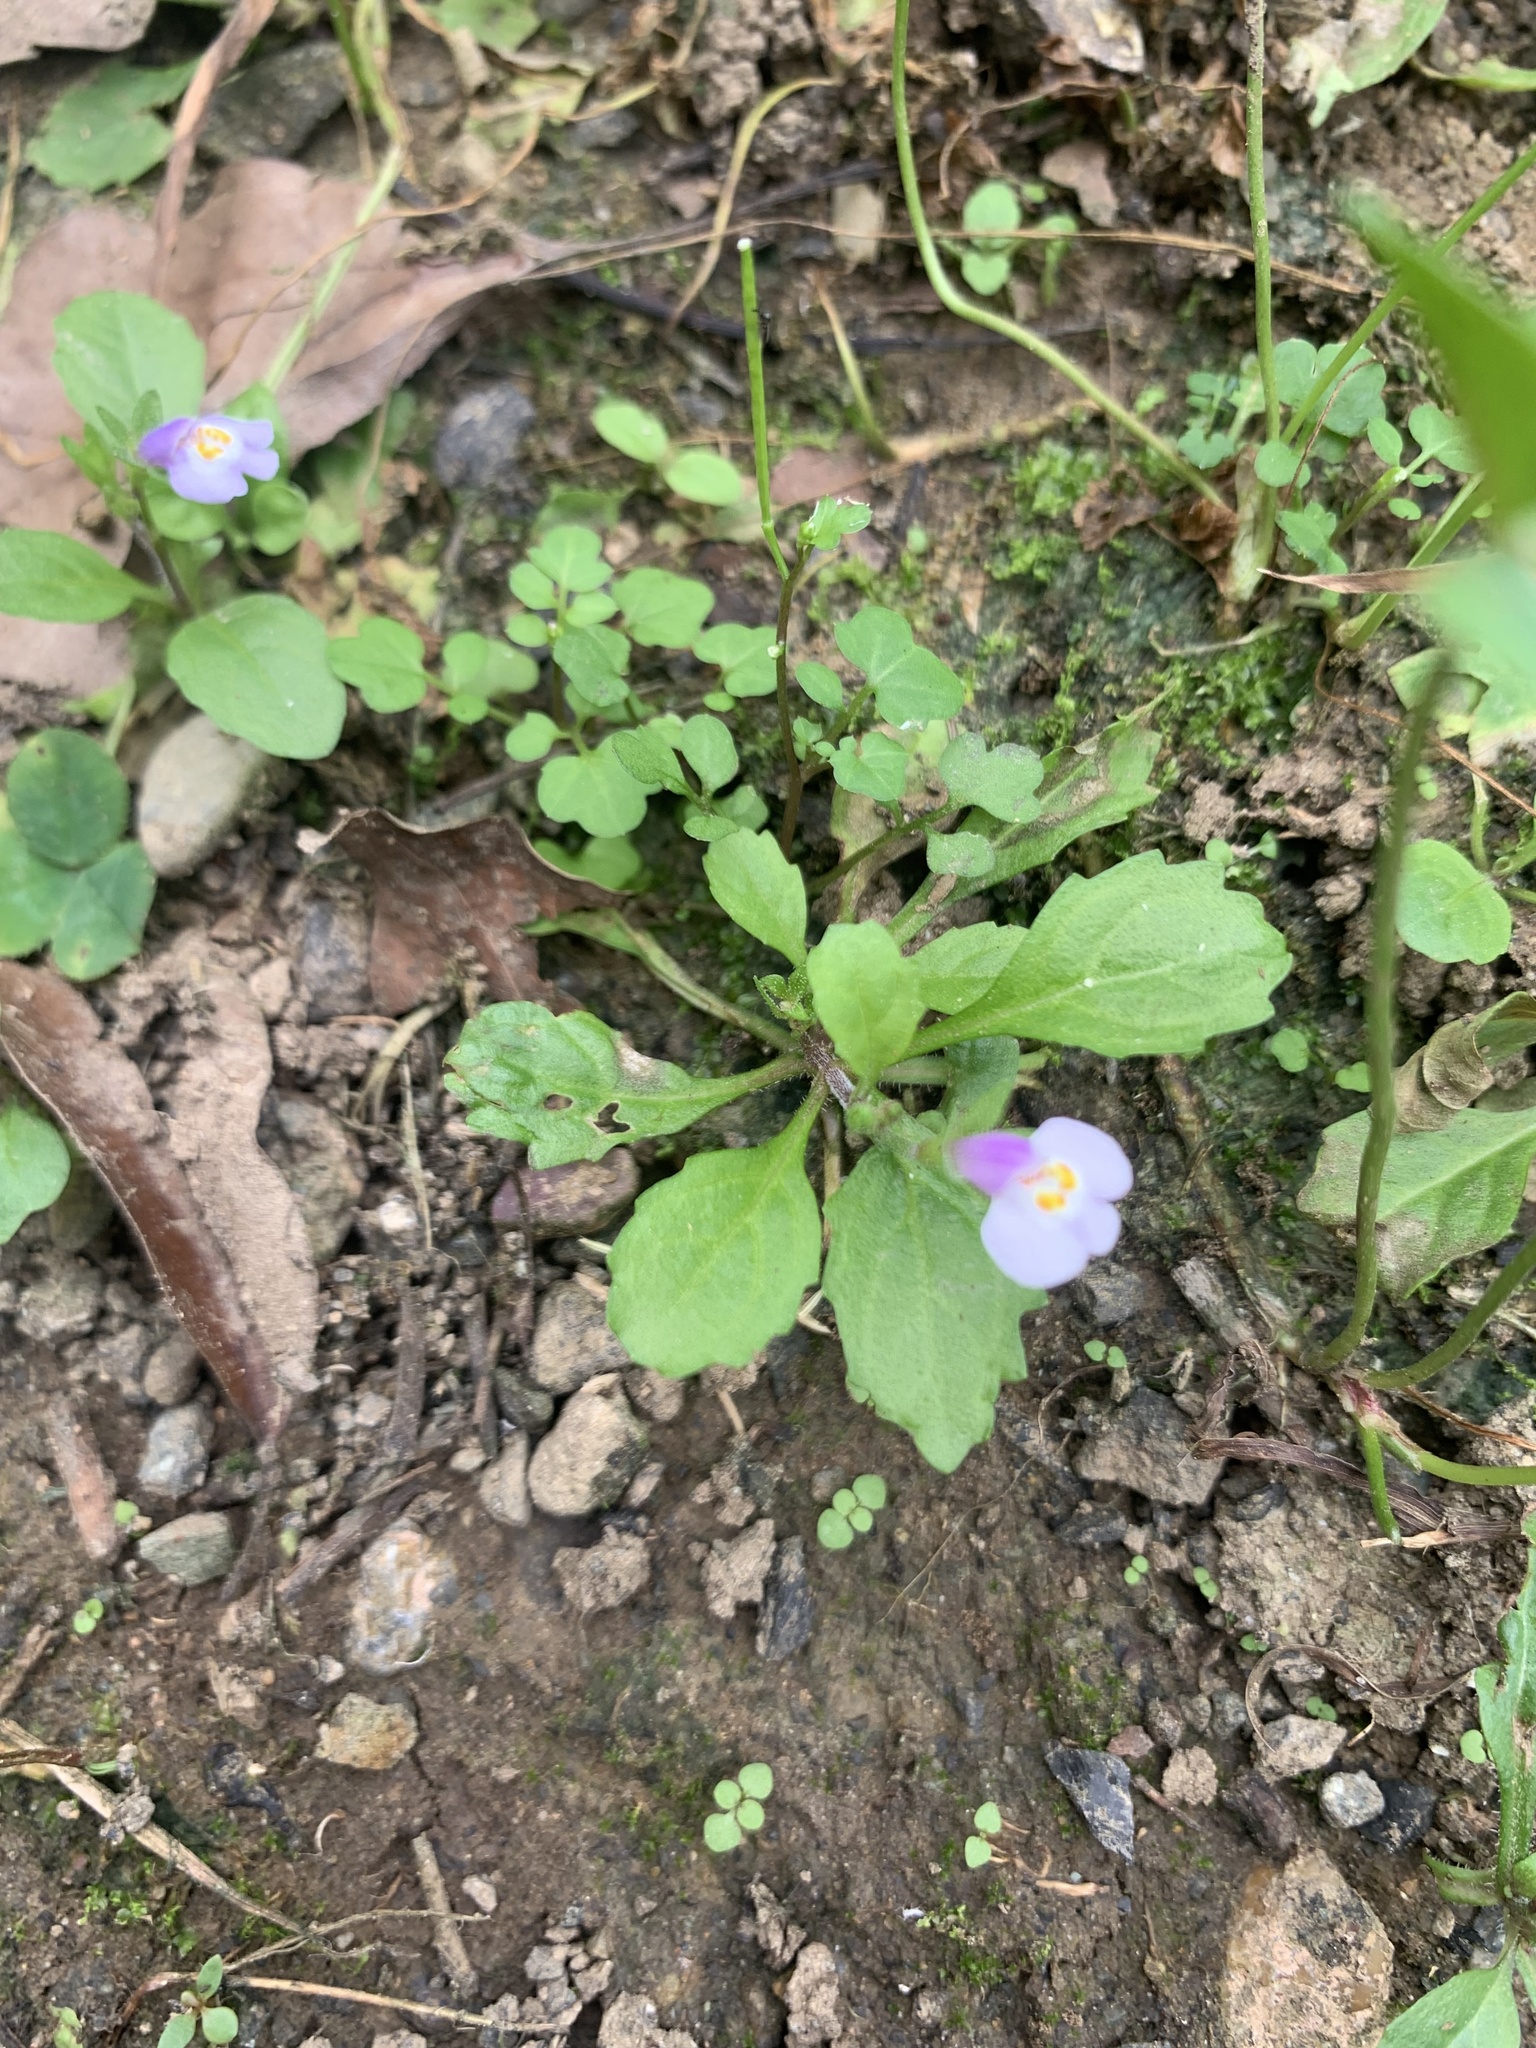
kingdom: Plantae
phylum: Tracheophyta
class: Magnoliopsida
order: Lamiales
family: Mazaceae
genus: Mazus
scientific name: Mazus pumilus
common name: Japanese mazus
